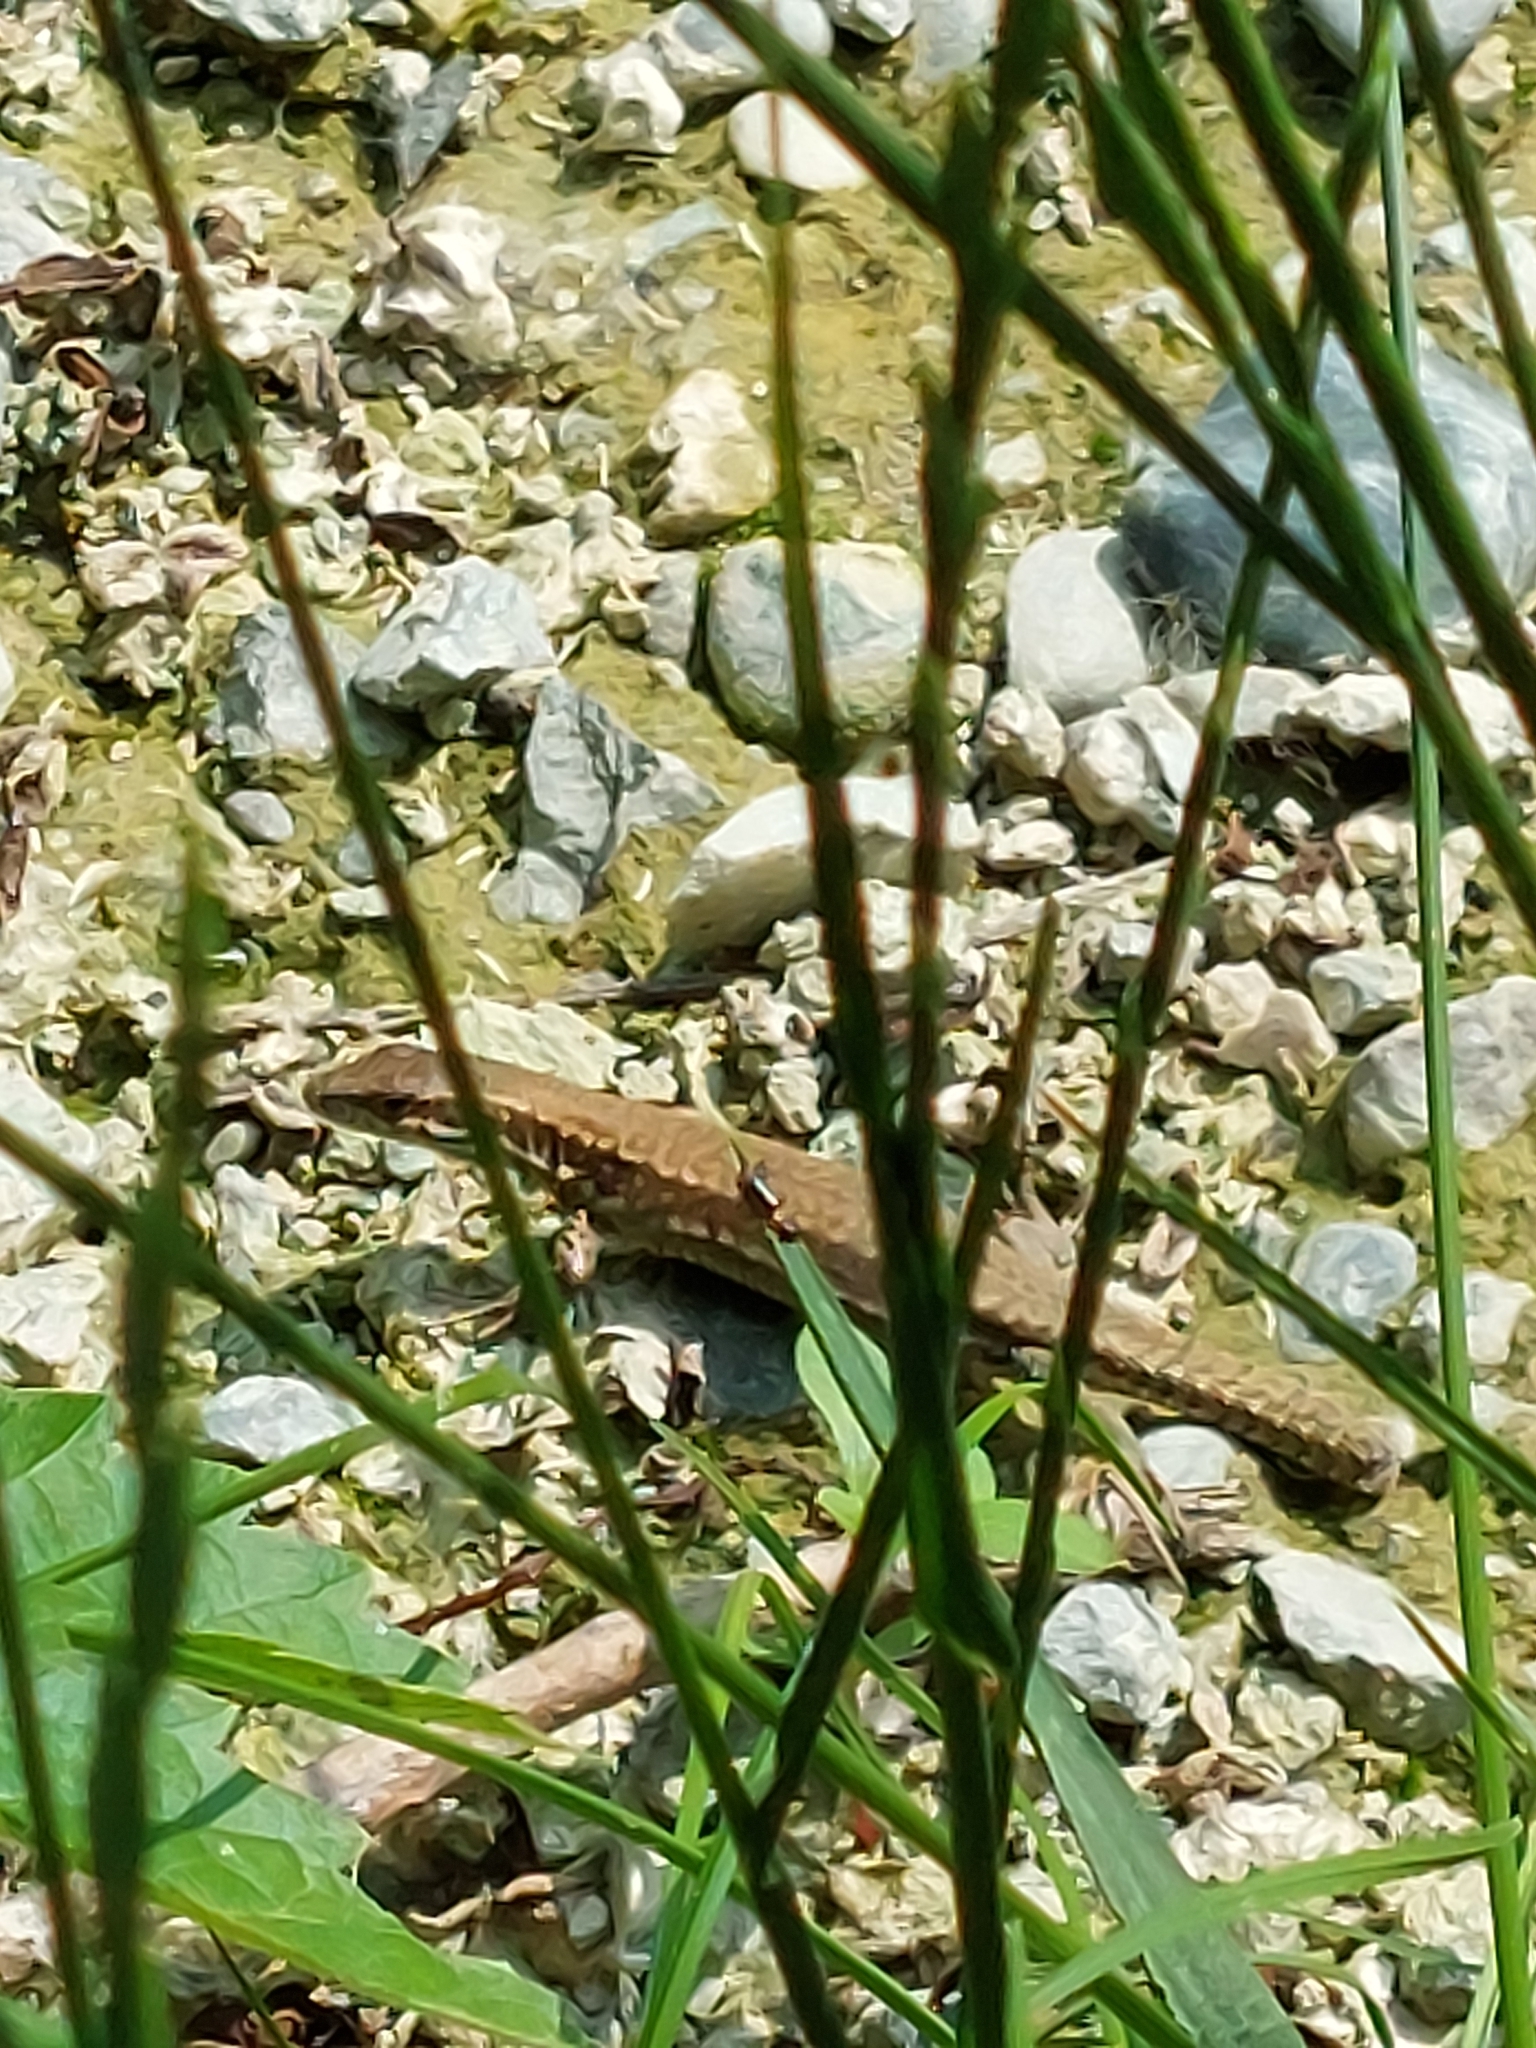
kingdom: Animalia
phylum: Chordata
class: Squamata
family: Lacertidae
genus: Podarcis
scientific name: Podarcis muralis
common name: Common wall lizard
